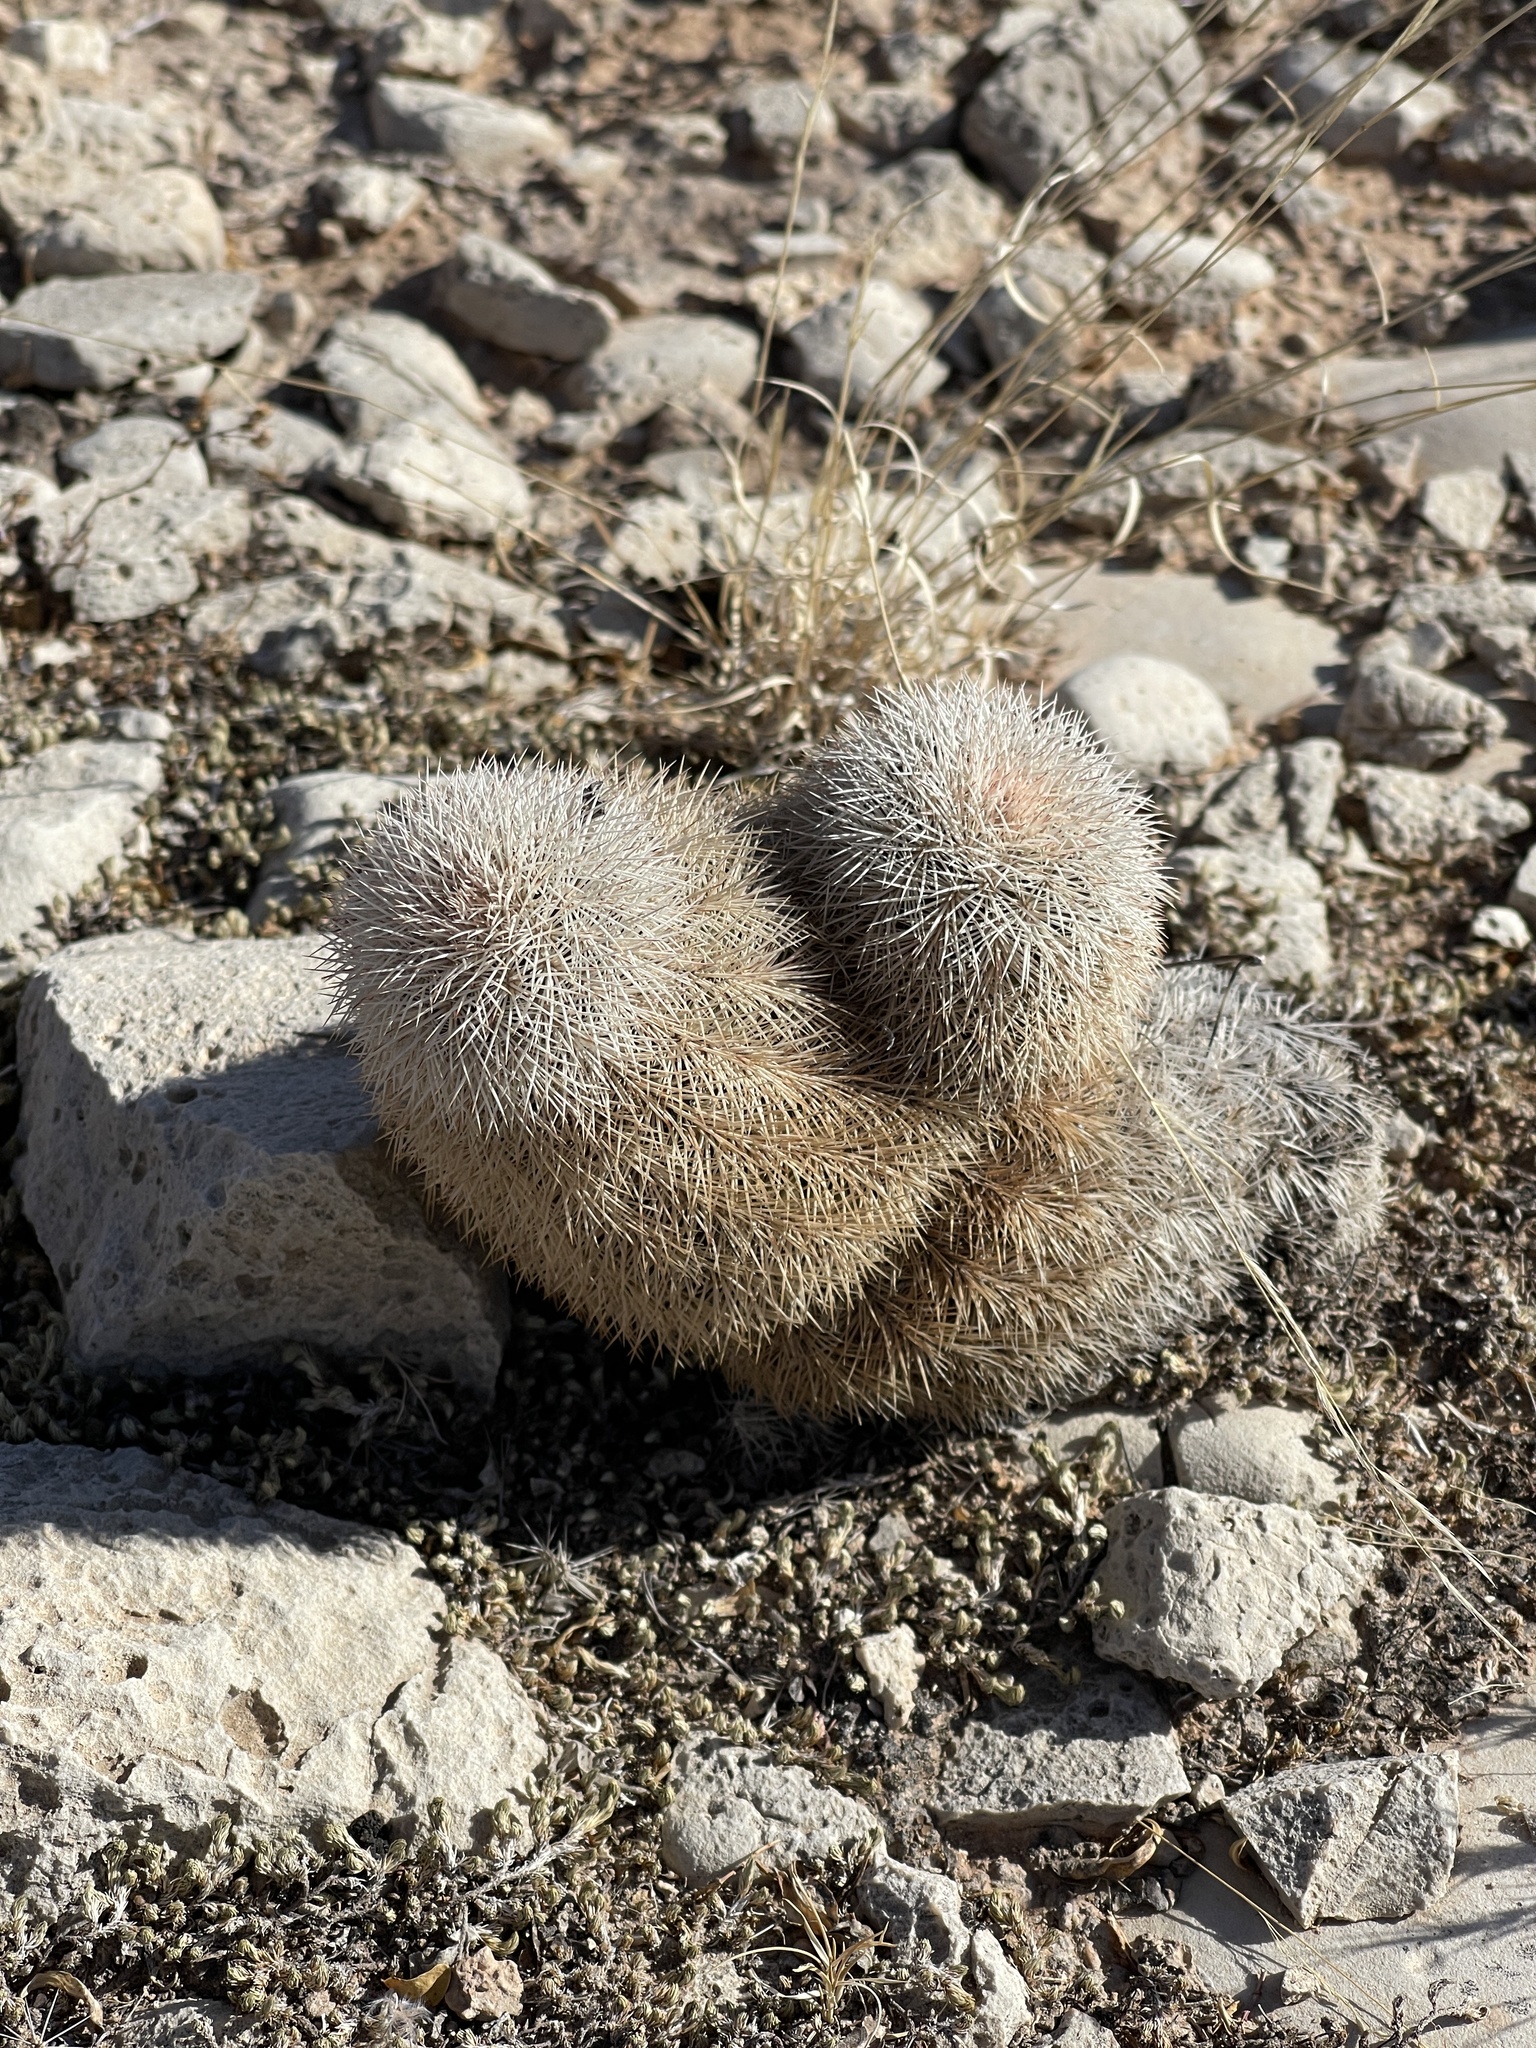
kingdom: Plantae
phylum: Tracheophyta
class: Magnoliopsida
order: Caryophyllales
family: Cactaceae
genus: Echinocereus
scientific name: Echinocereus dasyacanthus
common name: Spiny hedgehog cactus
